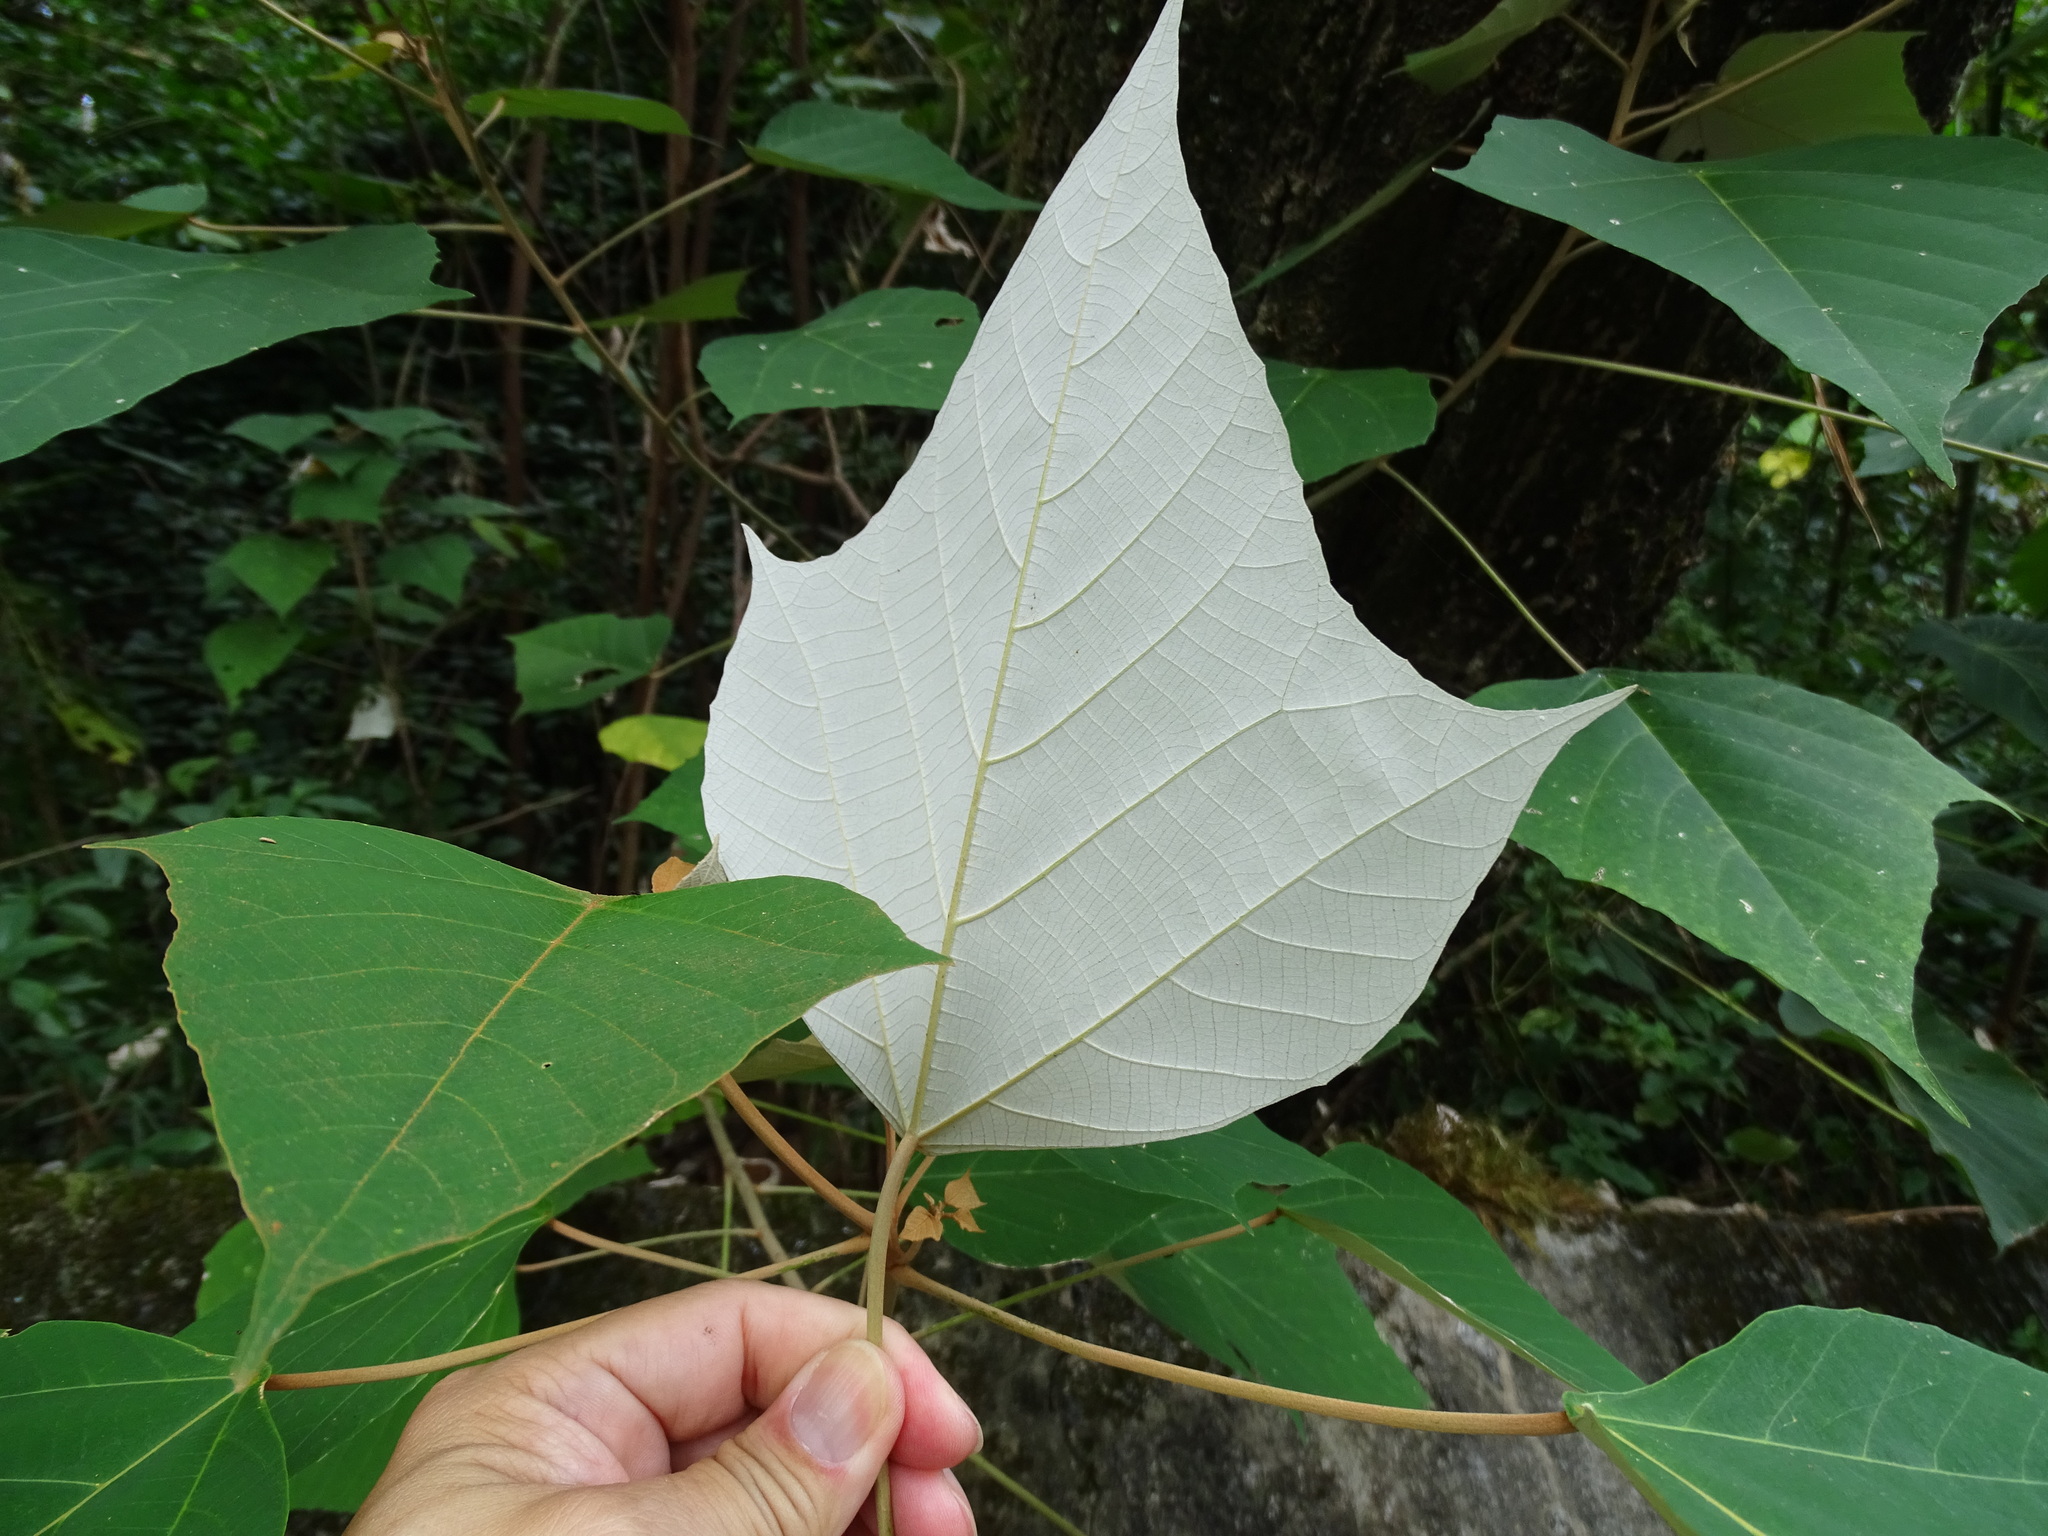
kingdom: Plantae
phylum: Tracheophyta
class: Magnoliopsida
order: Malpighiales
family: Euphorbiaceae
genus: Mallotus
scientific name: Mallotus paniculatus
